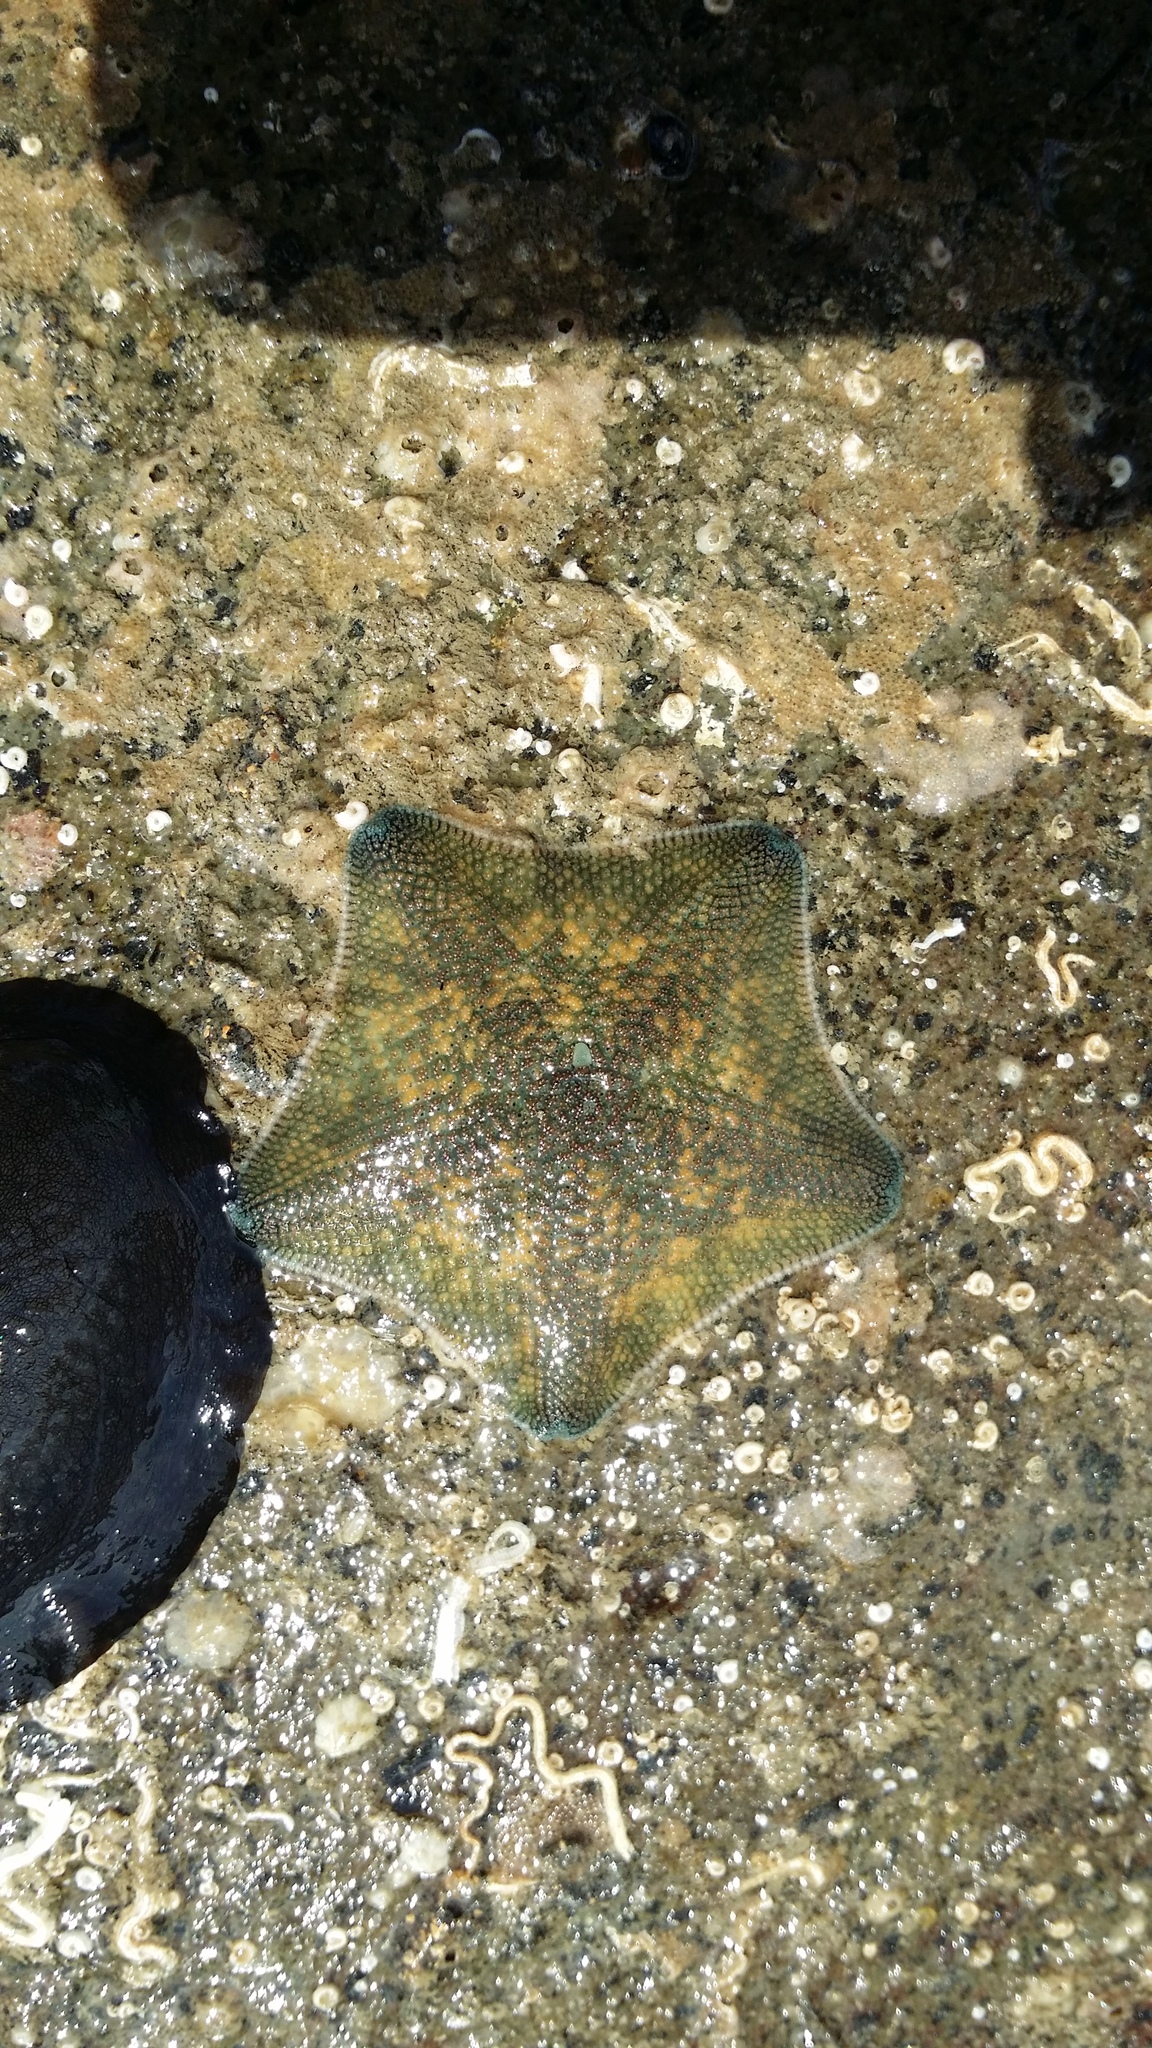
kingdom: Animalia
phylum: Echinodermata
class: Asteroidea
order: Valvatida
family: Asterinidae
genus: Patiriella
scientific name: Patiriella regularis
